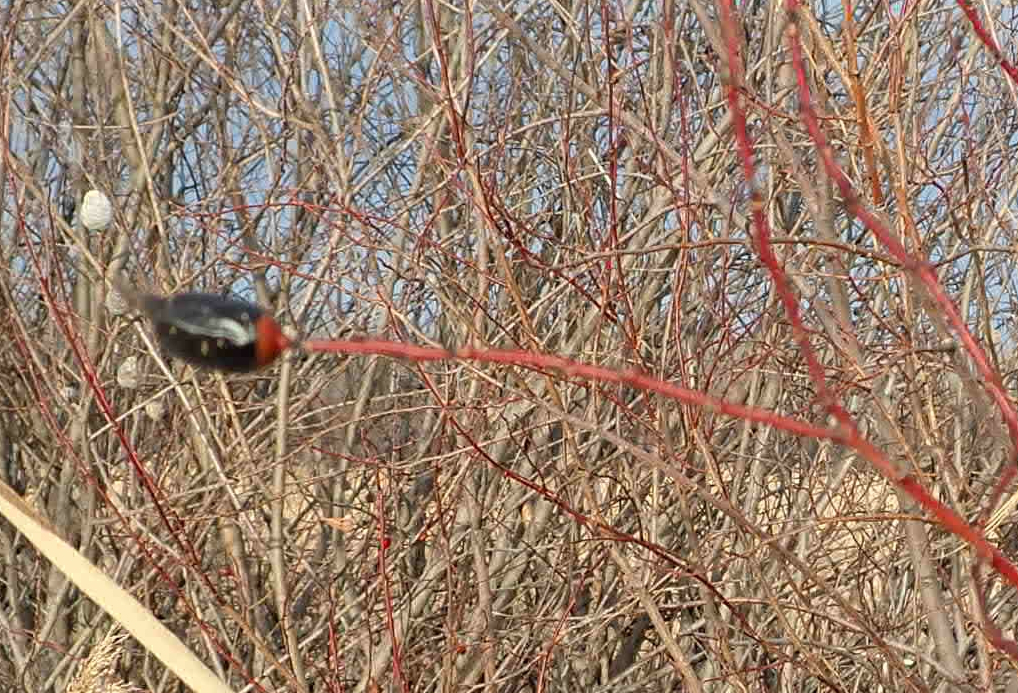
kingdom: Animalia
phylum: Arthropoda
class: Insecta
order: Diptera
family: Cecidomyiidae
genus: Thecodiplosis
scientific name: Thecodiplosis pinirigidae
